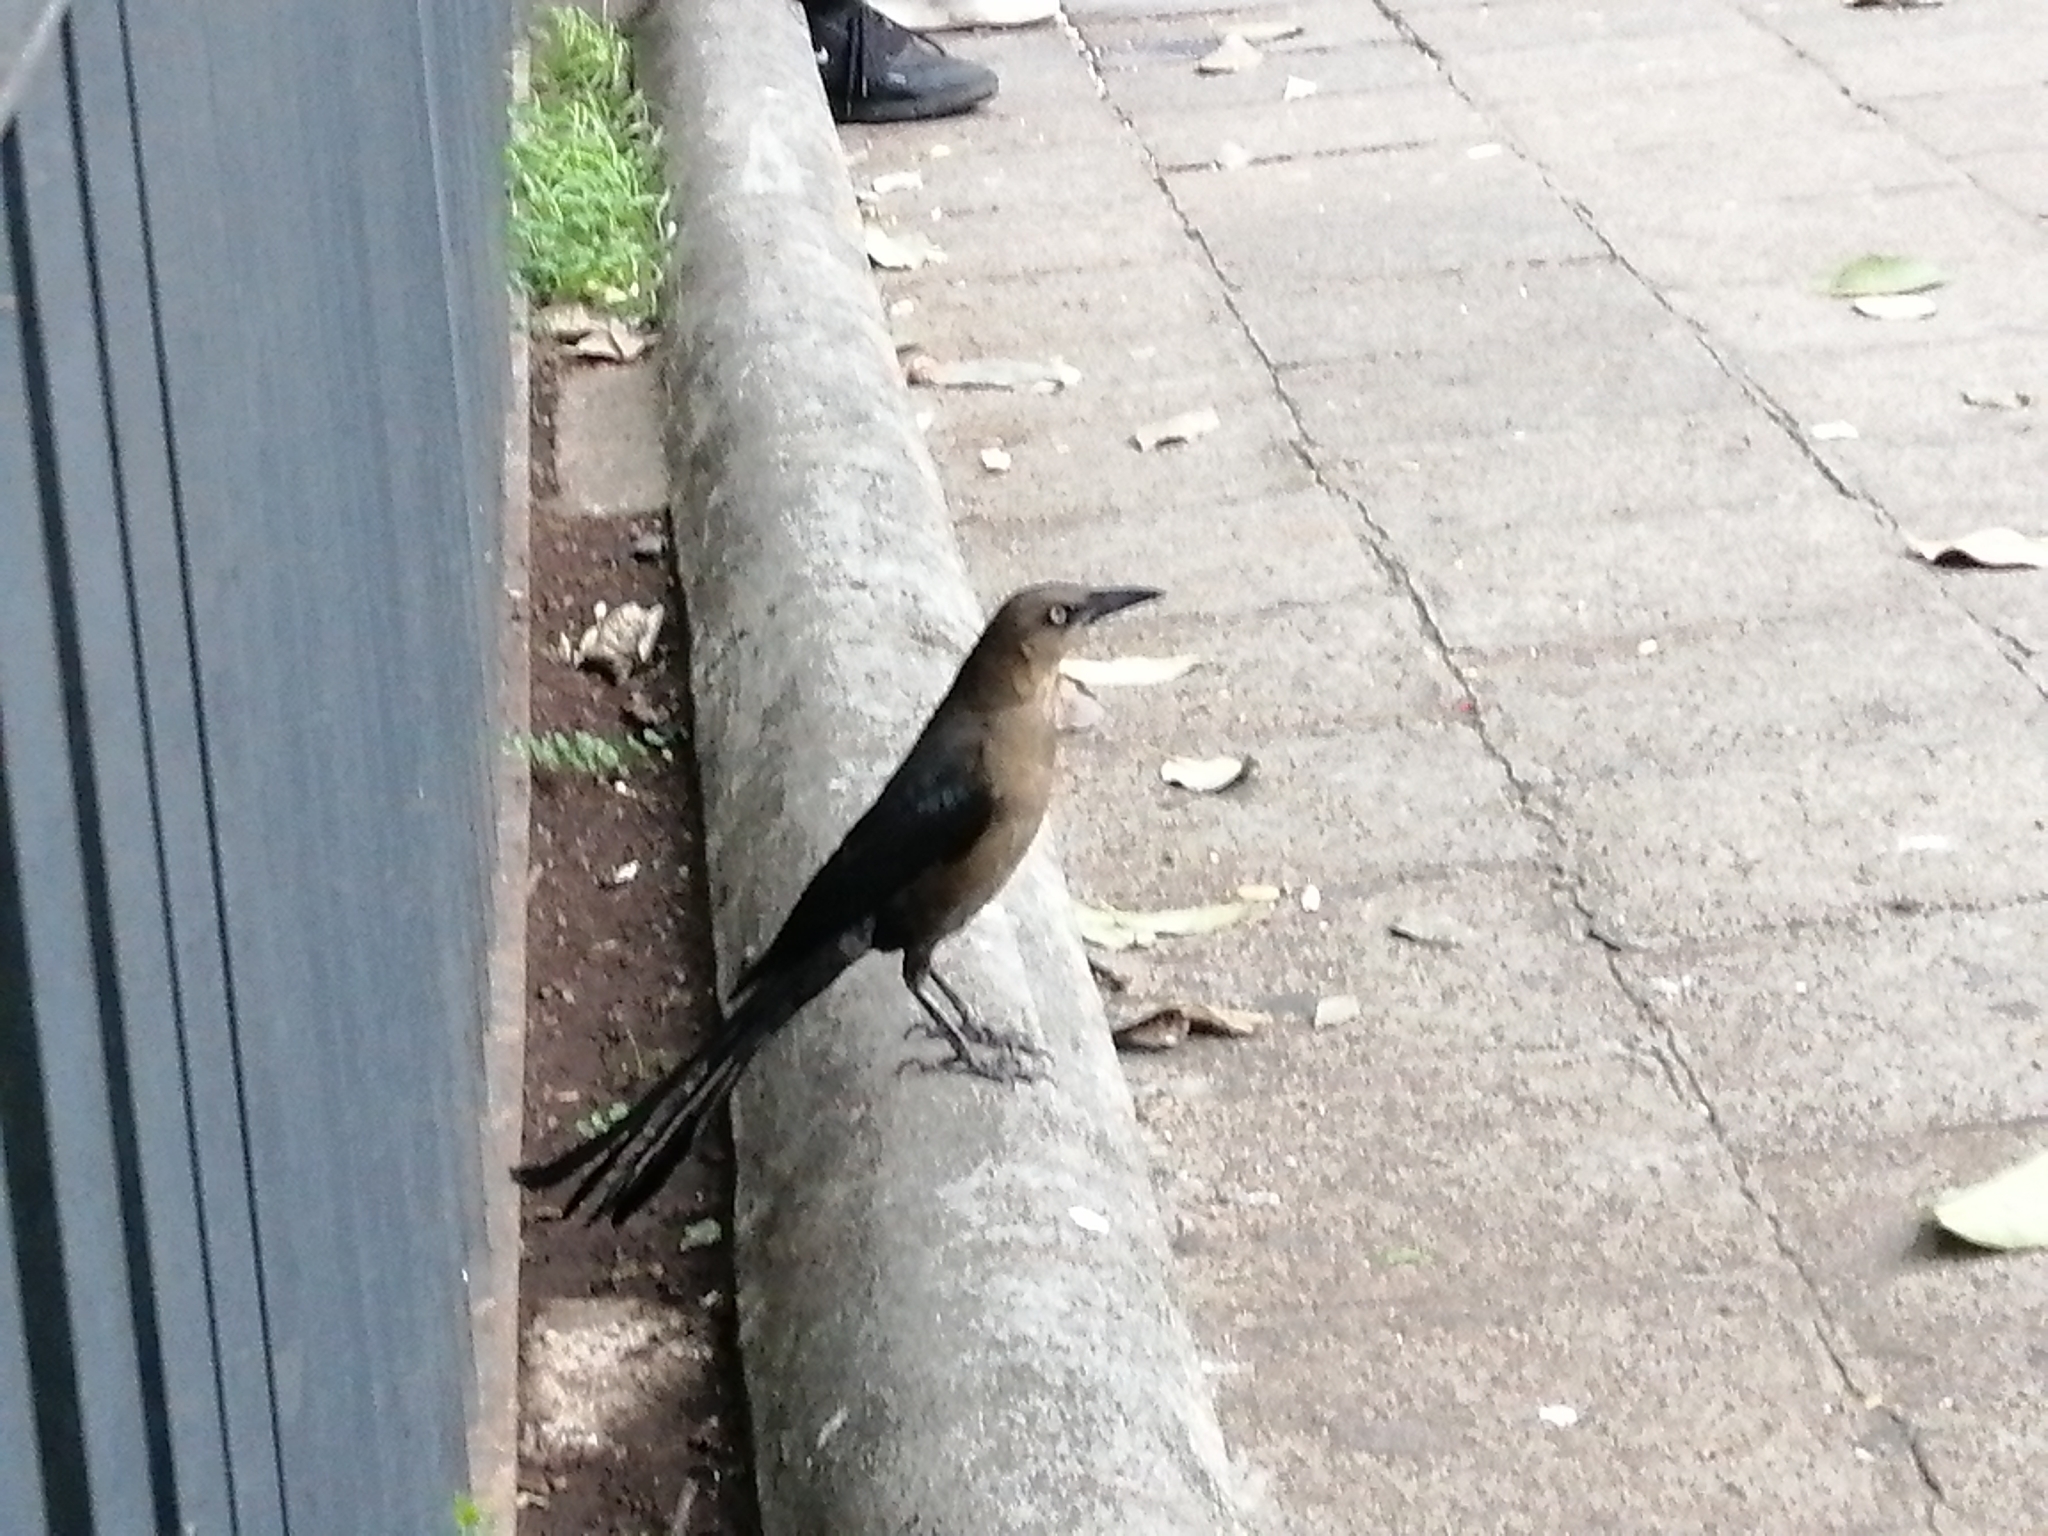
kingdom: Animalia
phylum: Chordata
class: Aves
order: Passeriformes
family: Icteridae
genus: Quiscalus
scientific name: Quiscalus mexicanus
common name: Great-tailed grackle
